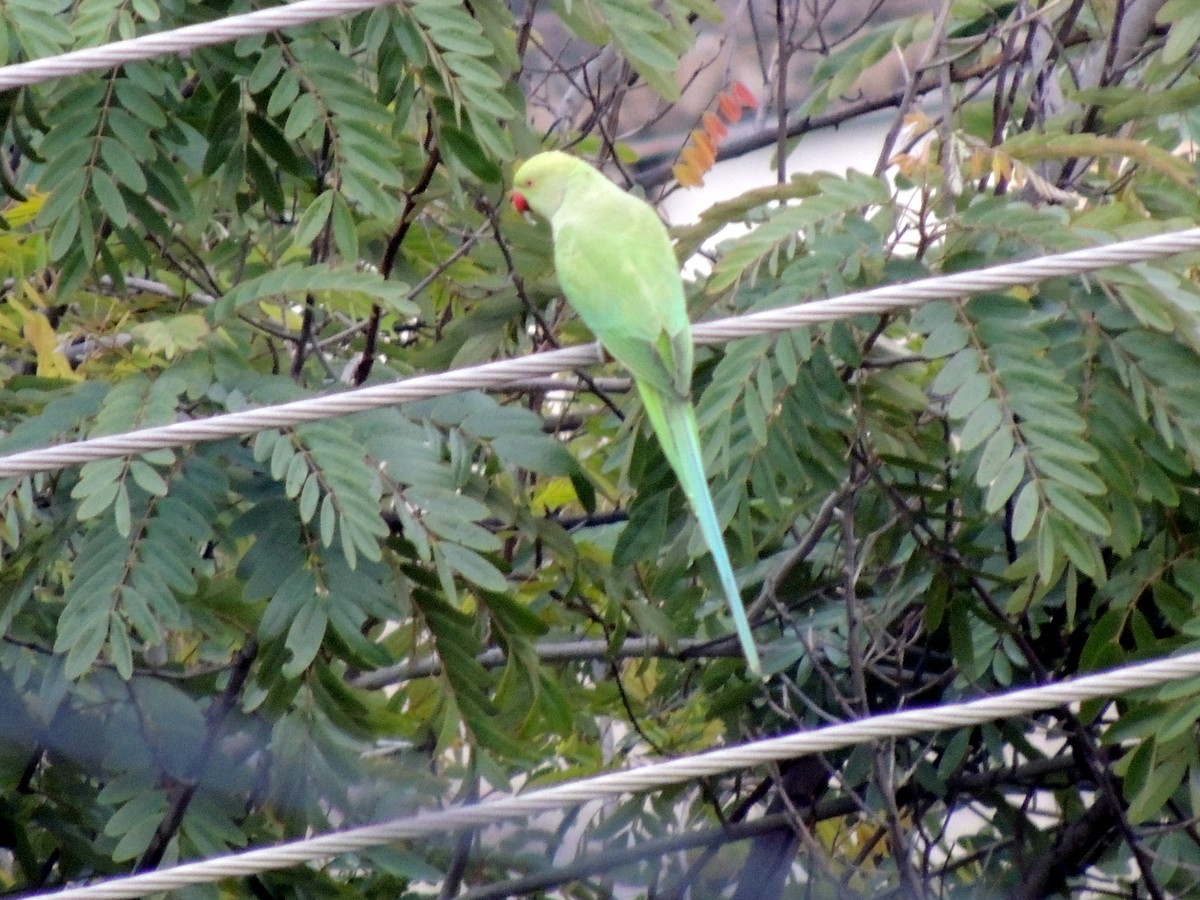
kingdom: Animalia
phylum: Chordata
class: Aves
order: Psittaciformes
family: Psittacidae
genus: Psittacula
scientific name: Psittacula krameri
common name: Rose-ringed parakeet
